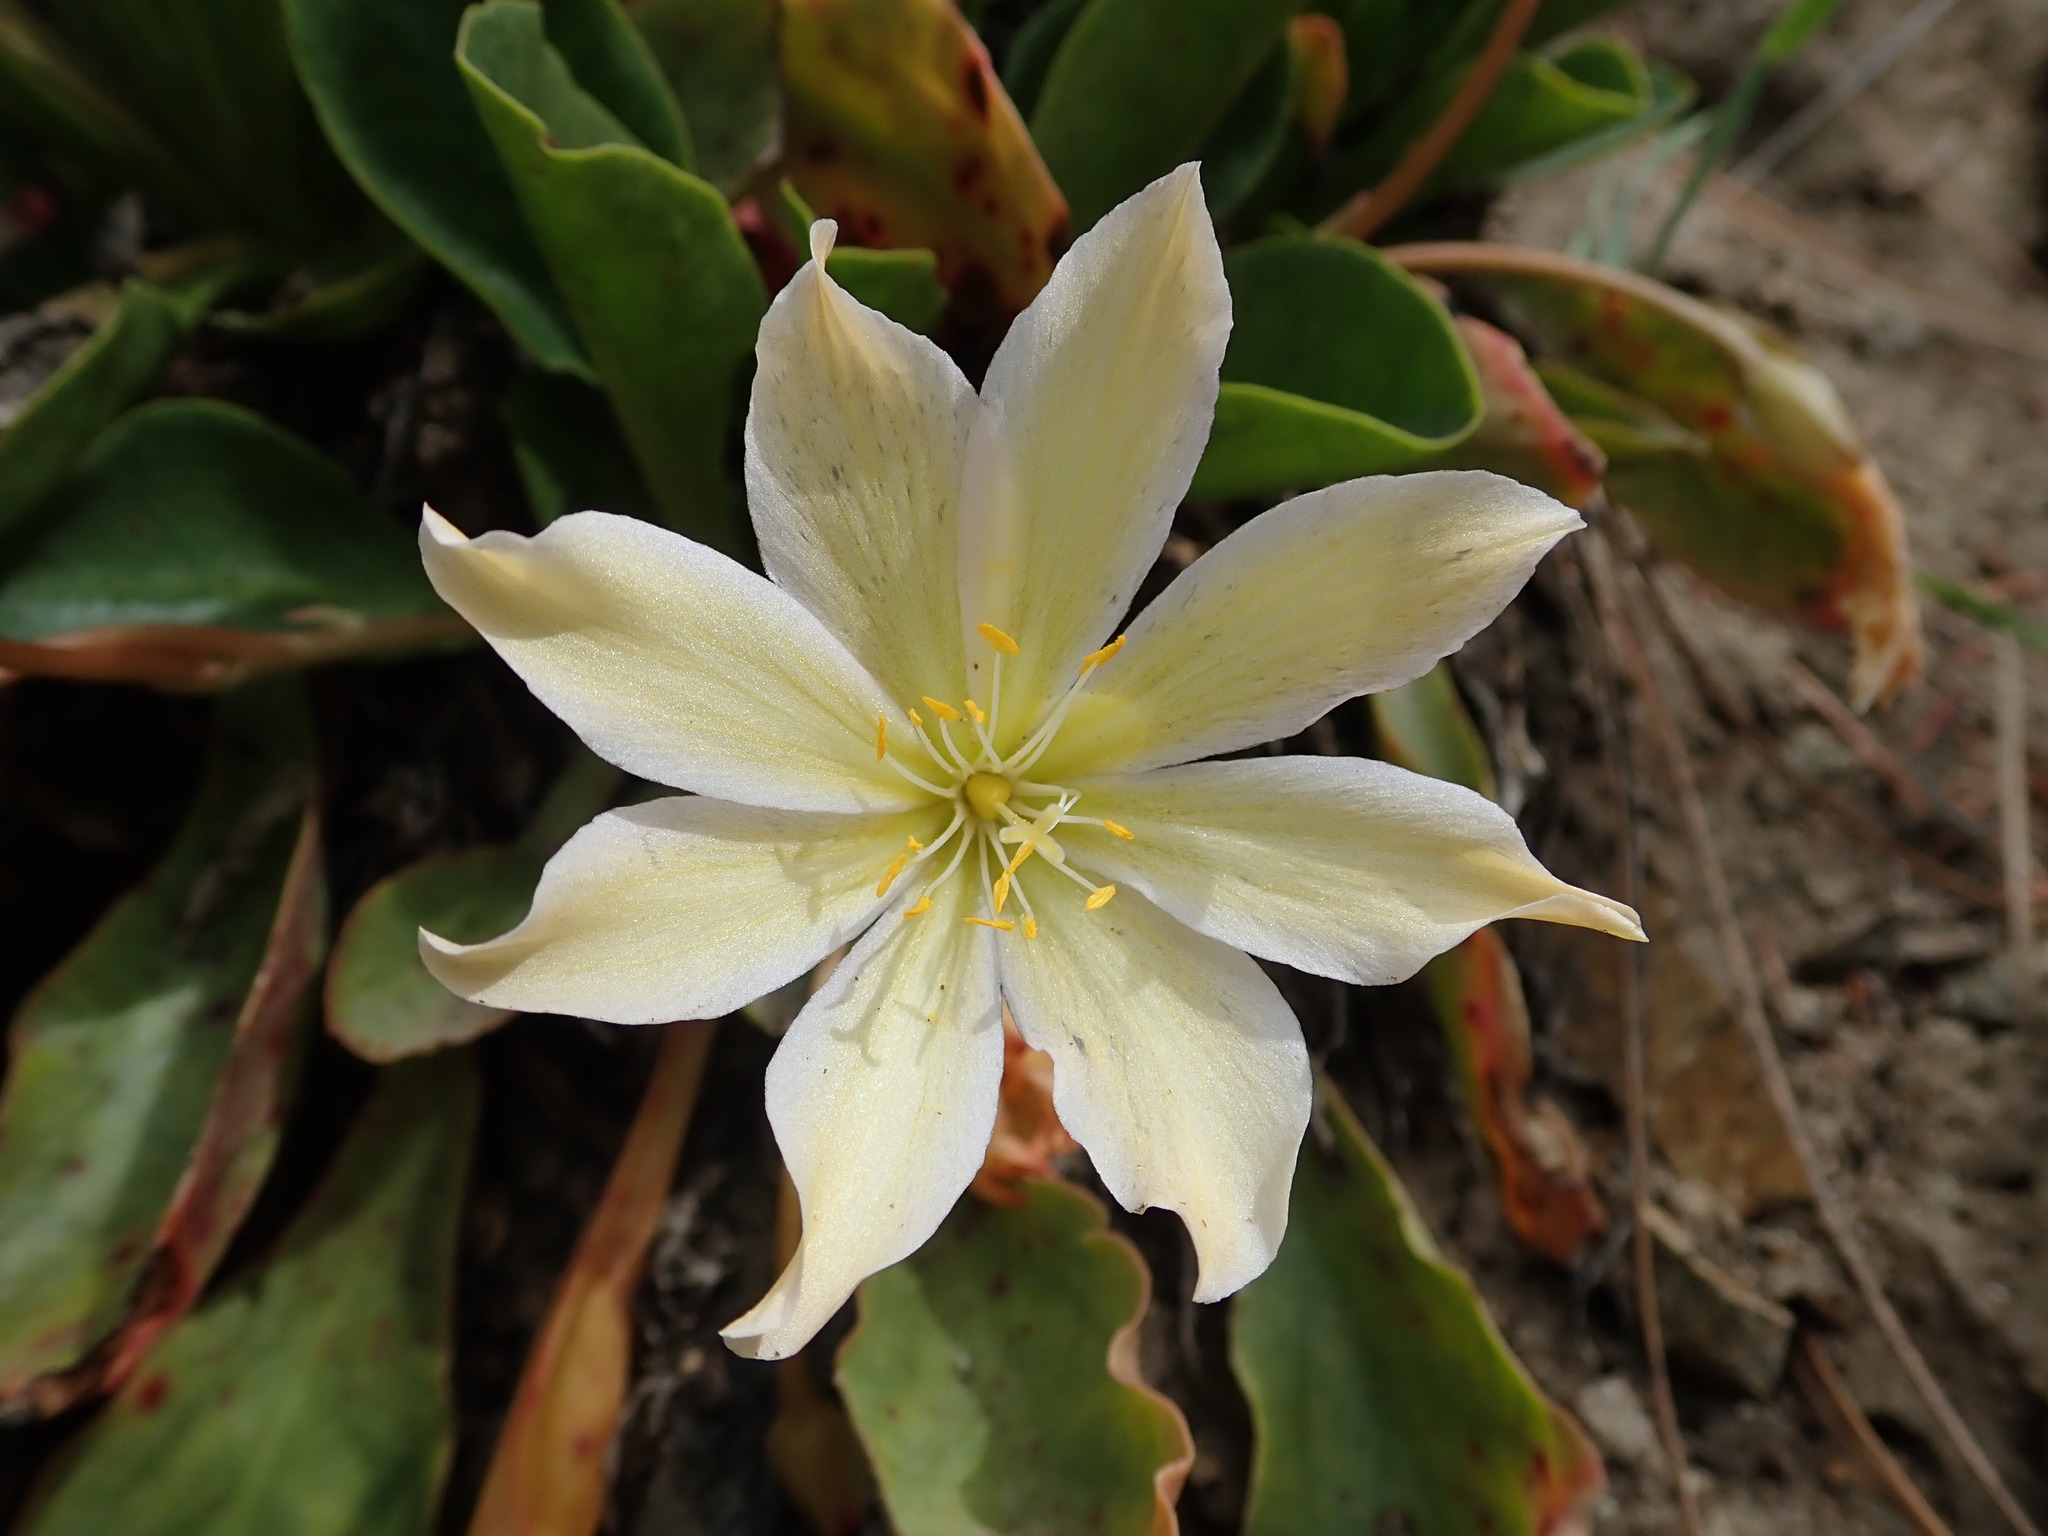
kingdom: Plantae
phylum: Tracheophyta
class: Magnoliopsida
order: Caryophyllales
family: Montiaceae
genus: Lewisiopsis
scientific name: Lewisiopsis tweedyi
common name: Tweedy's pussypaws
